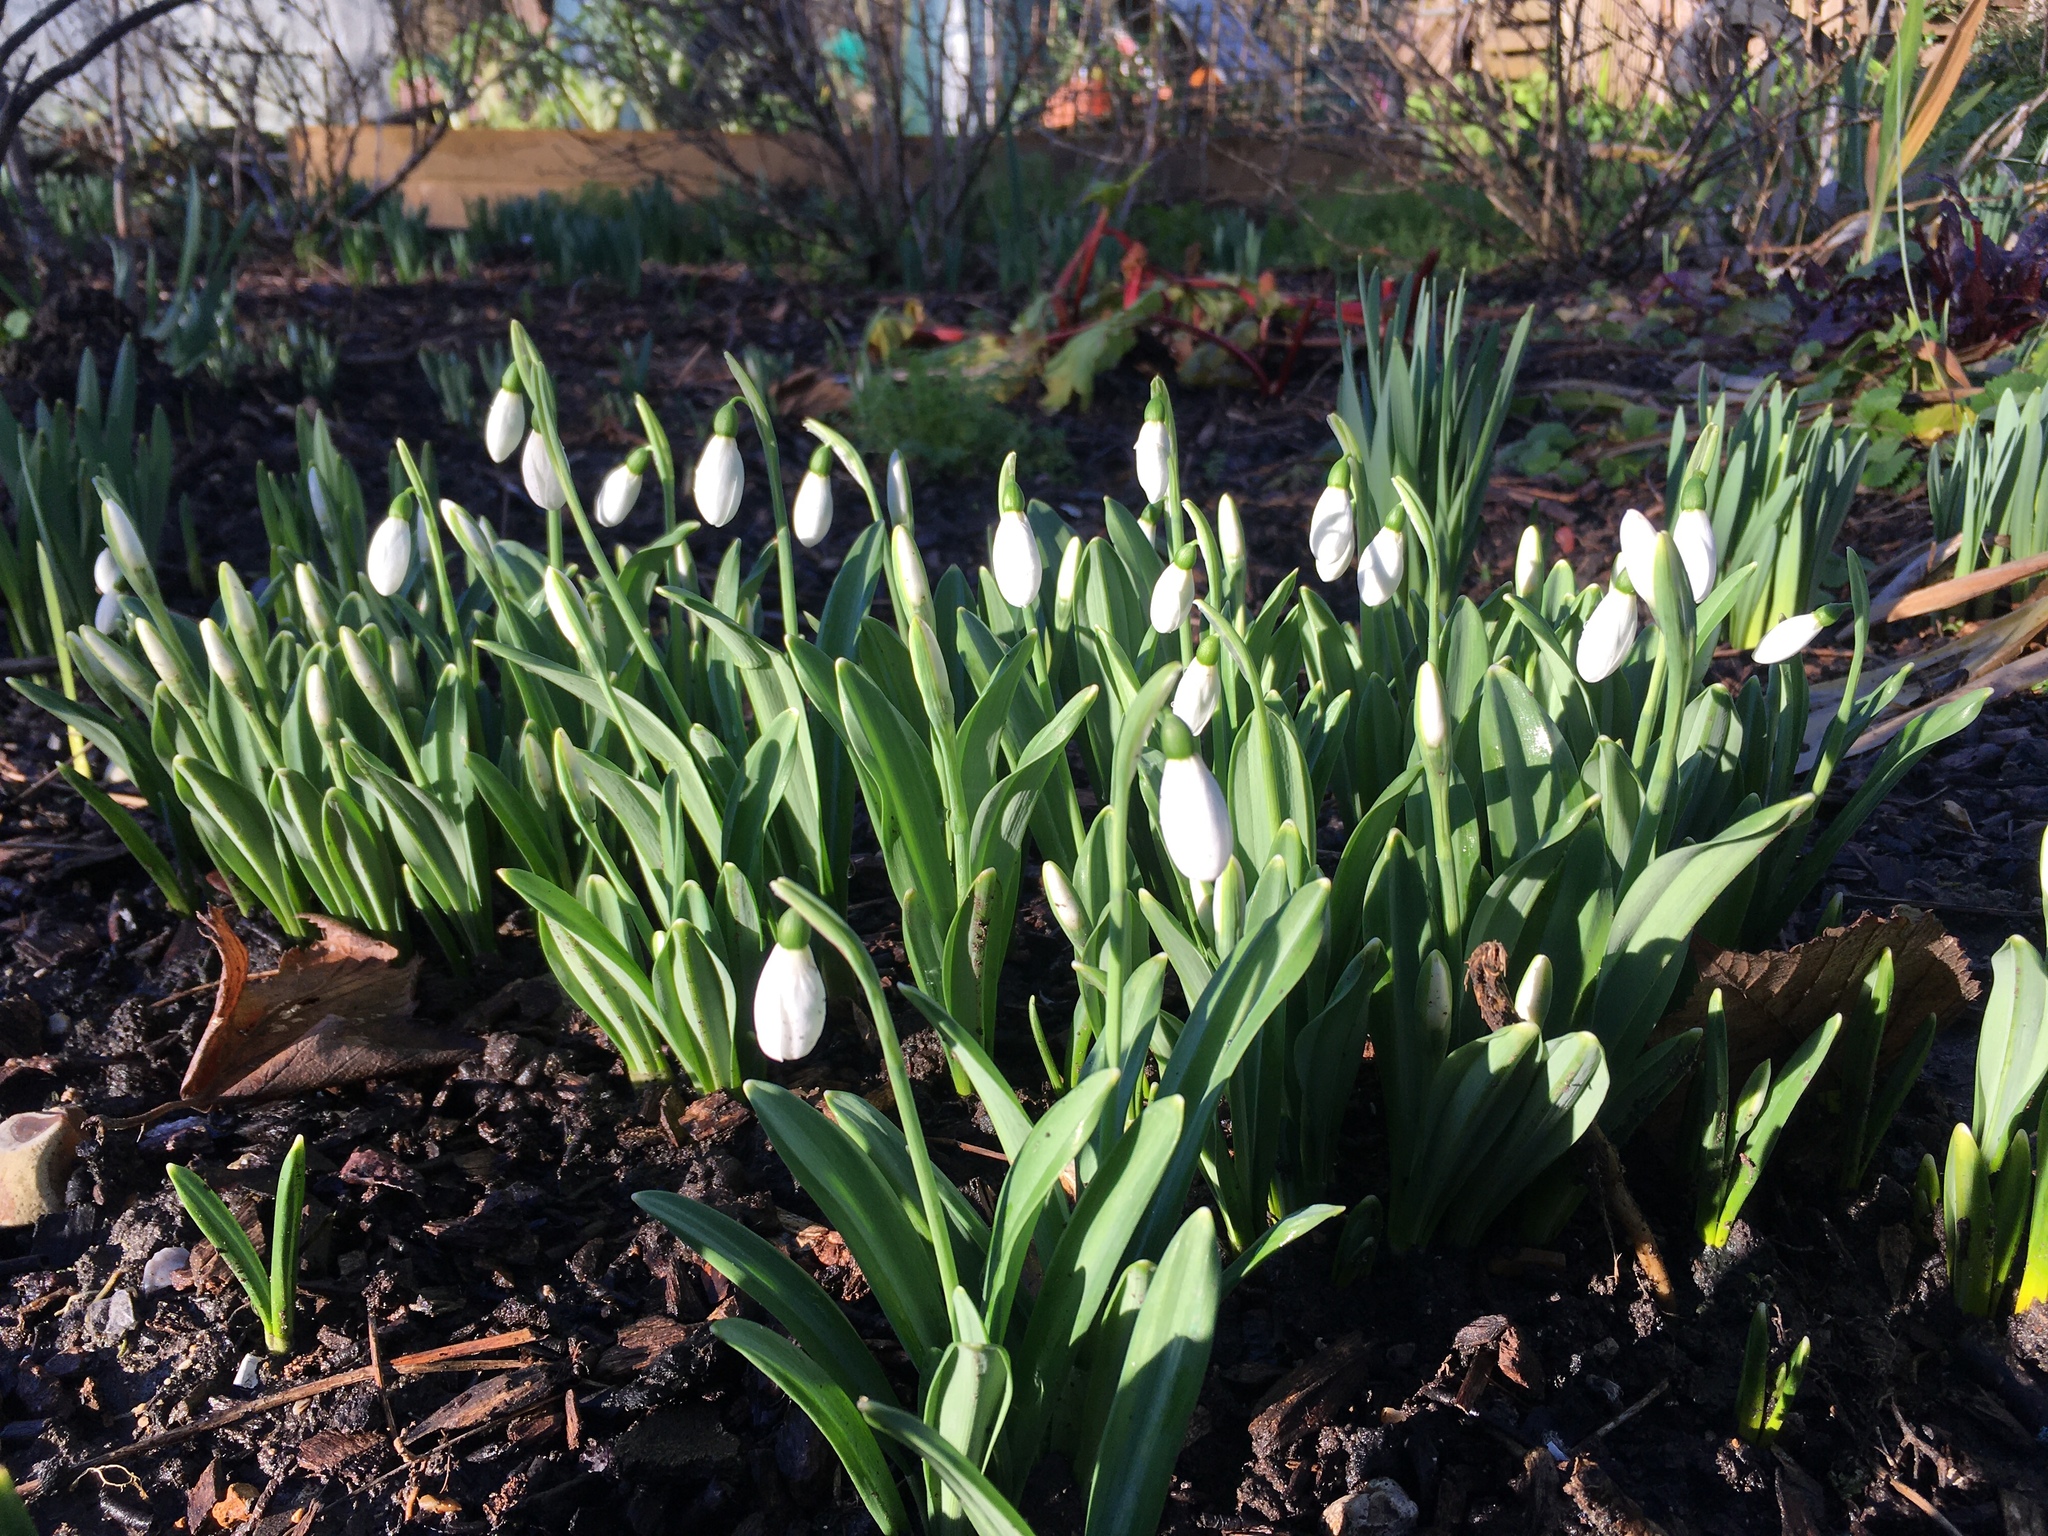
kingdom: Plantae
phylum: Tracheophyta
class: Liliopsida
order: Asparagales
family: Amaryllidaceae
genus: Galanthus
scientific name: Galanthus plicatus
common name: Pleated snowdrop
